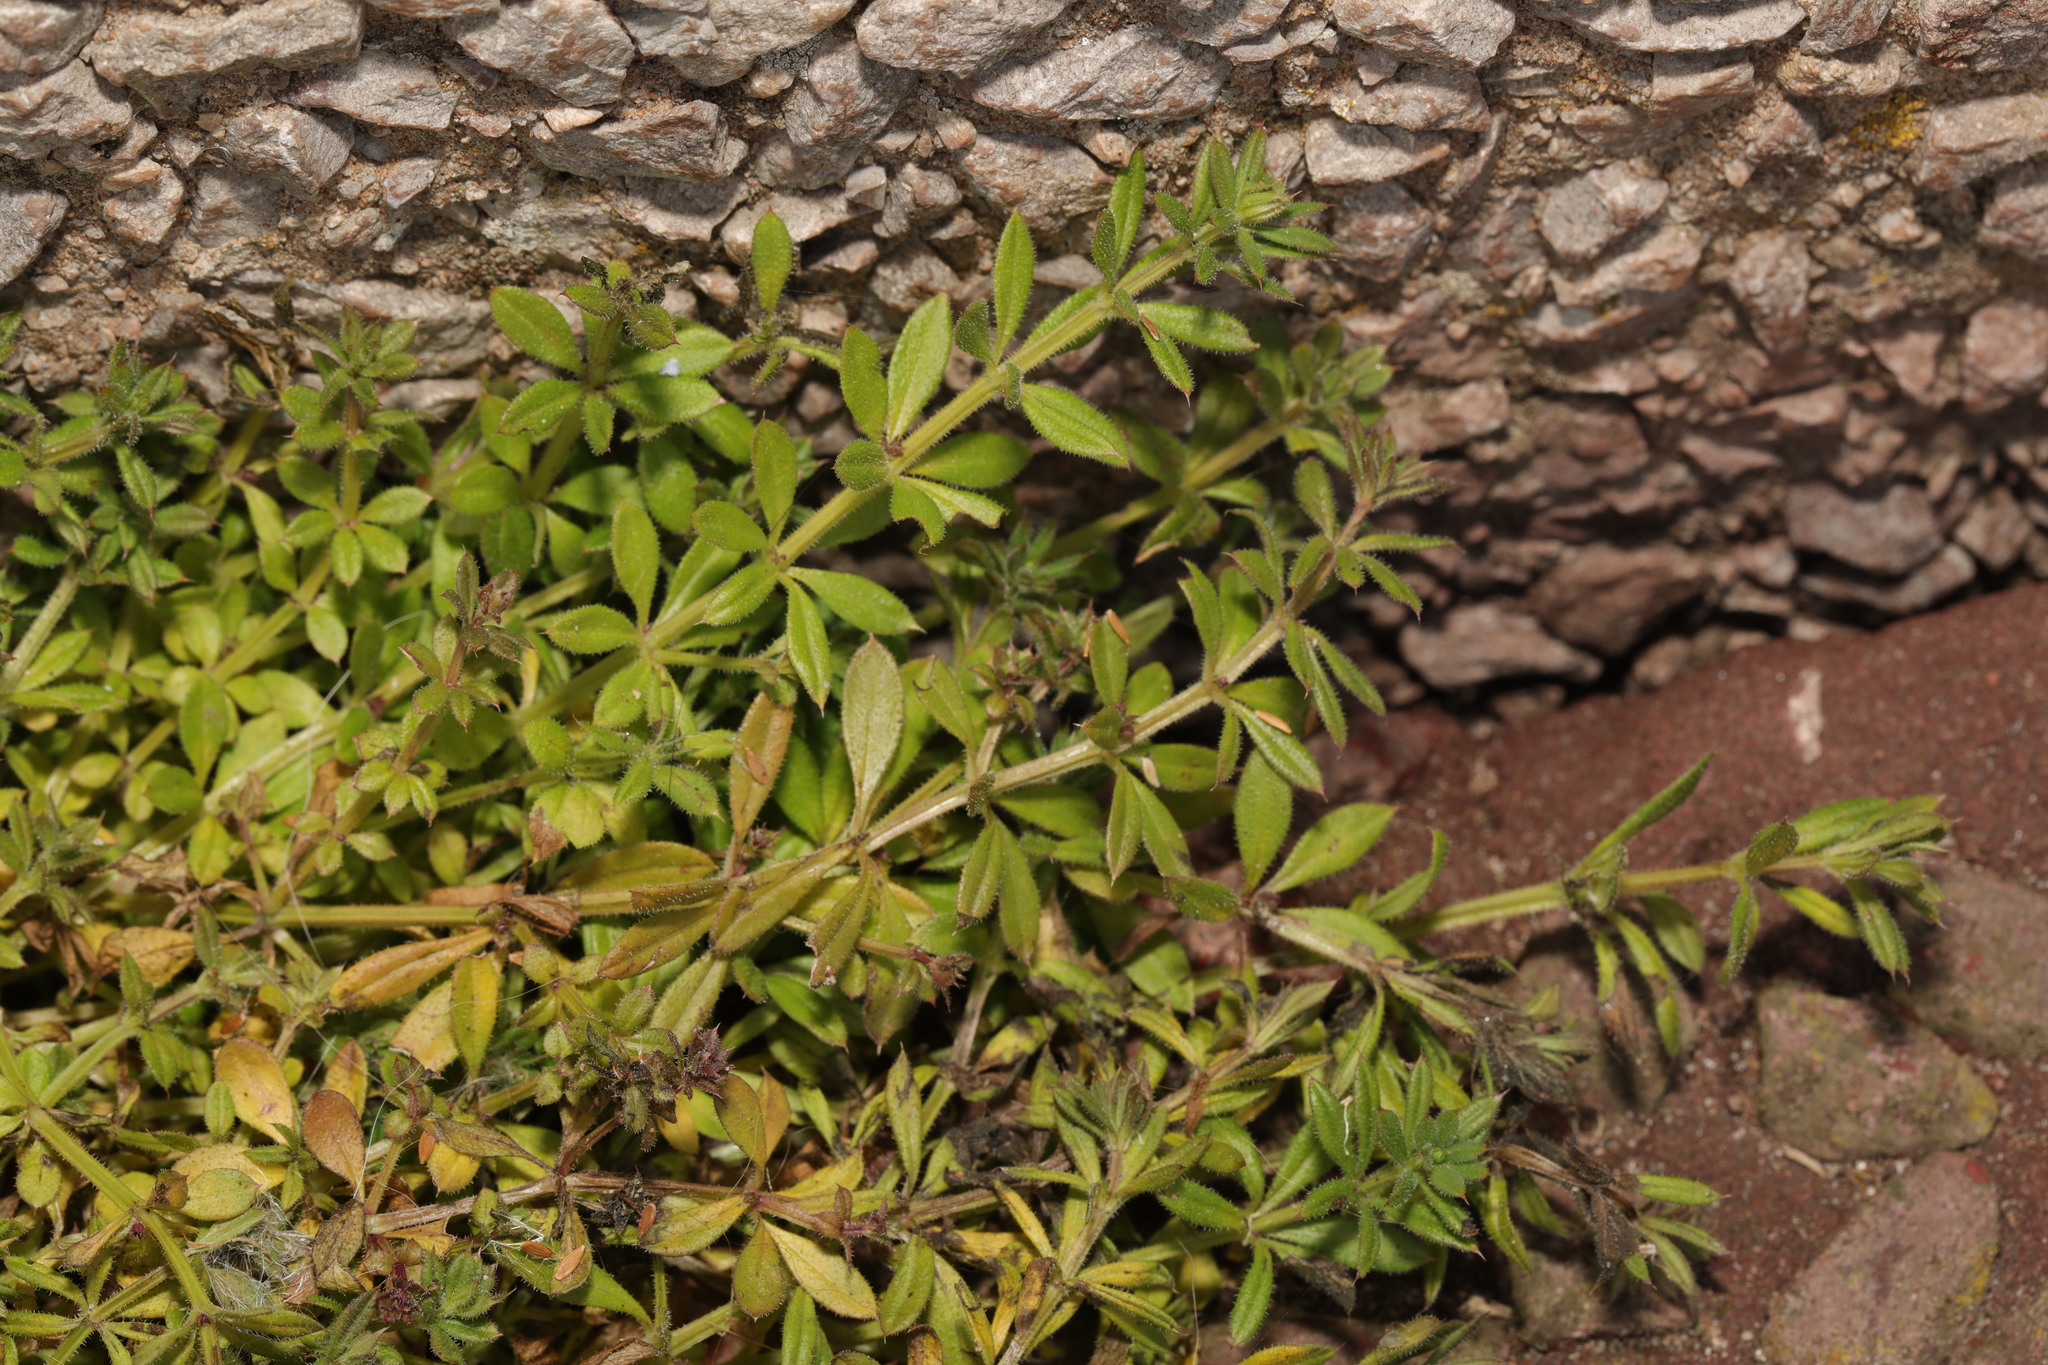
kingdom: Plantae
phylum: Tracheophyta
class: Magnoliopsida
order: Gentianales
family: Rubiaceae
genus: Galium
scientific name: Galium aparine
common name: Cleavers
